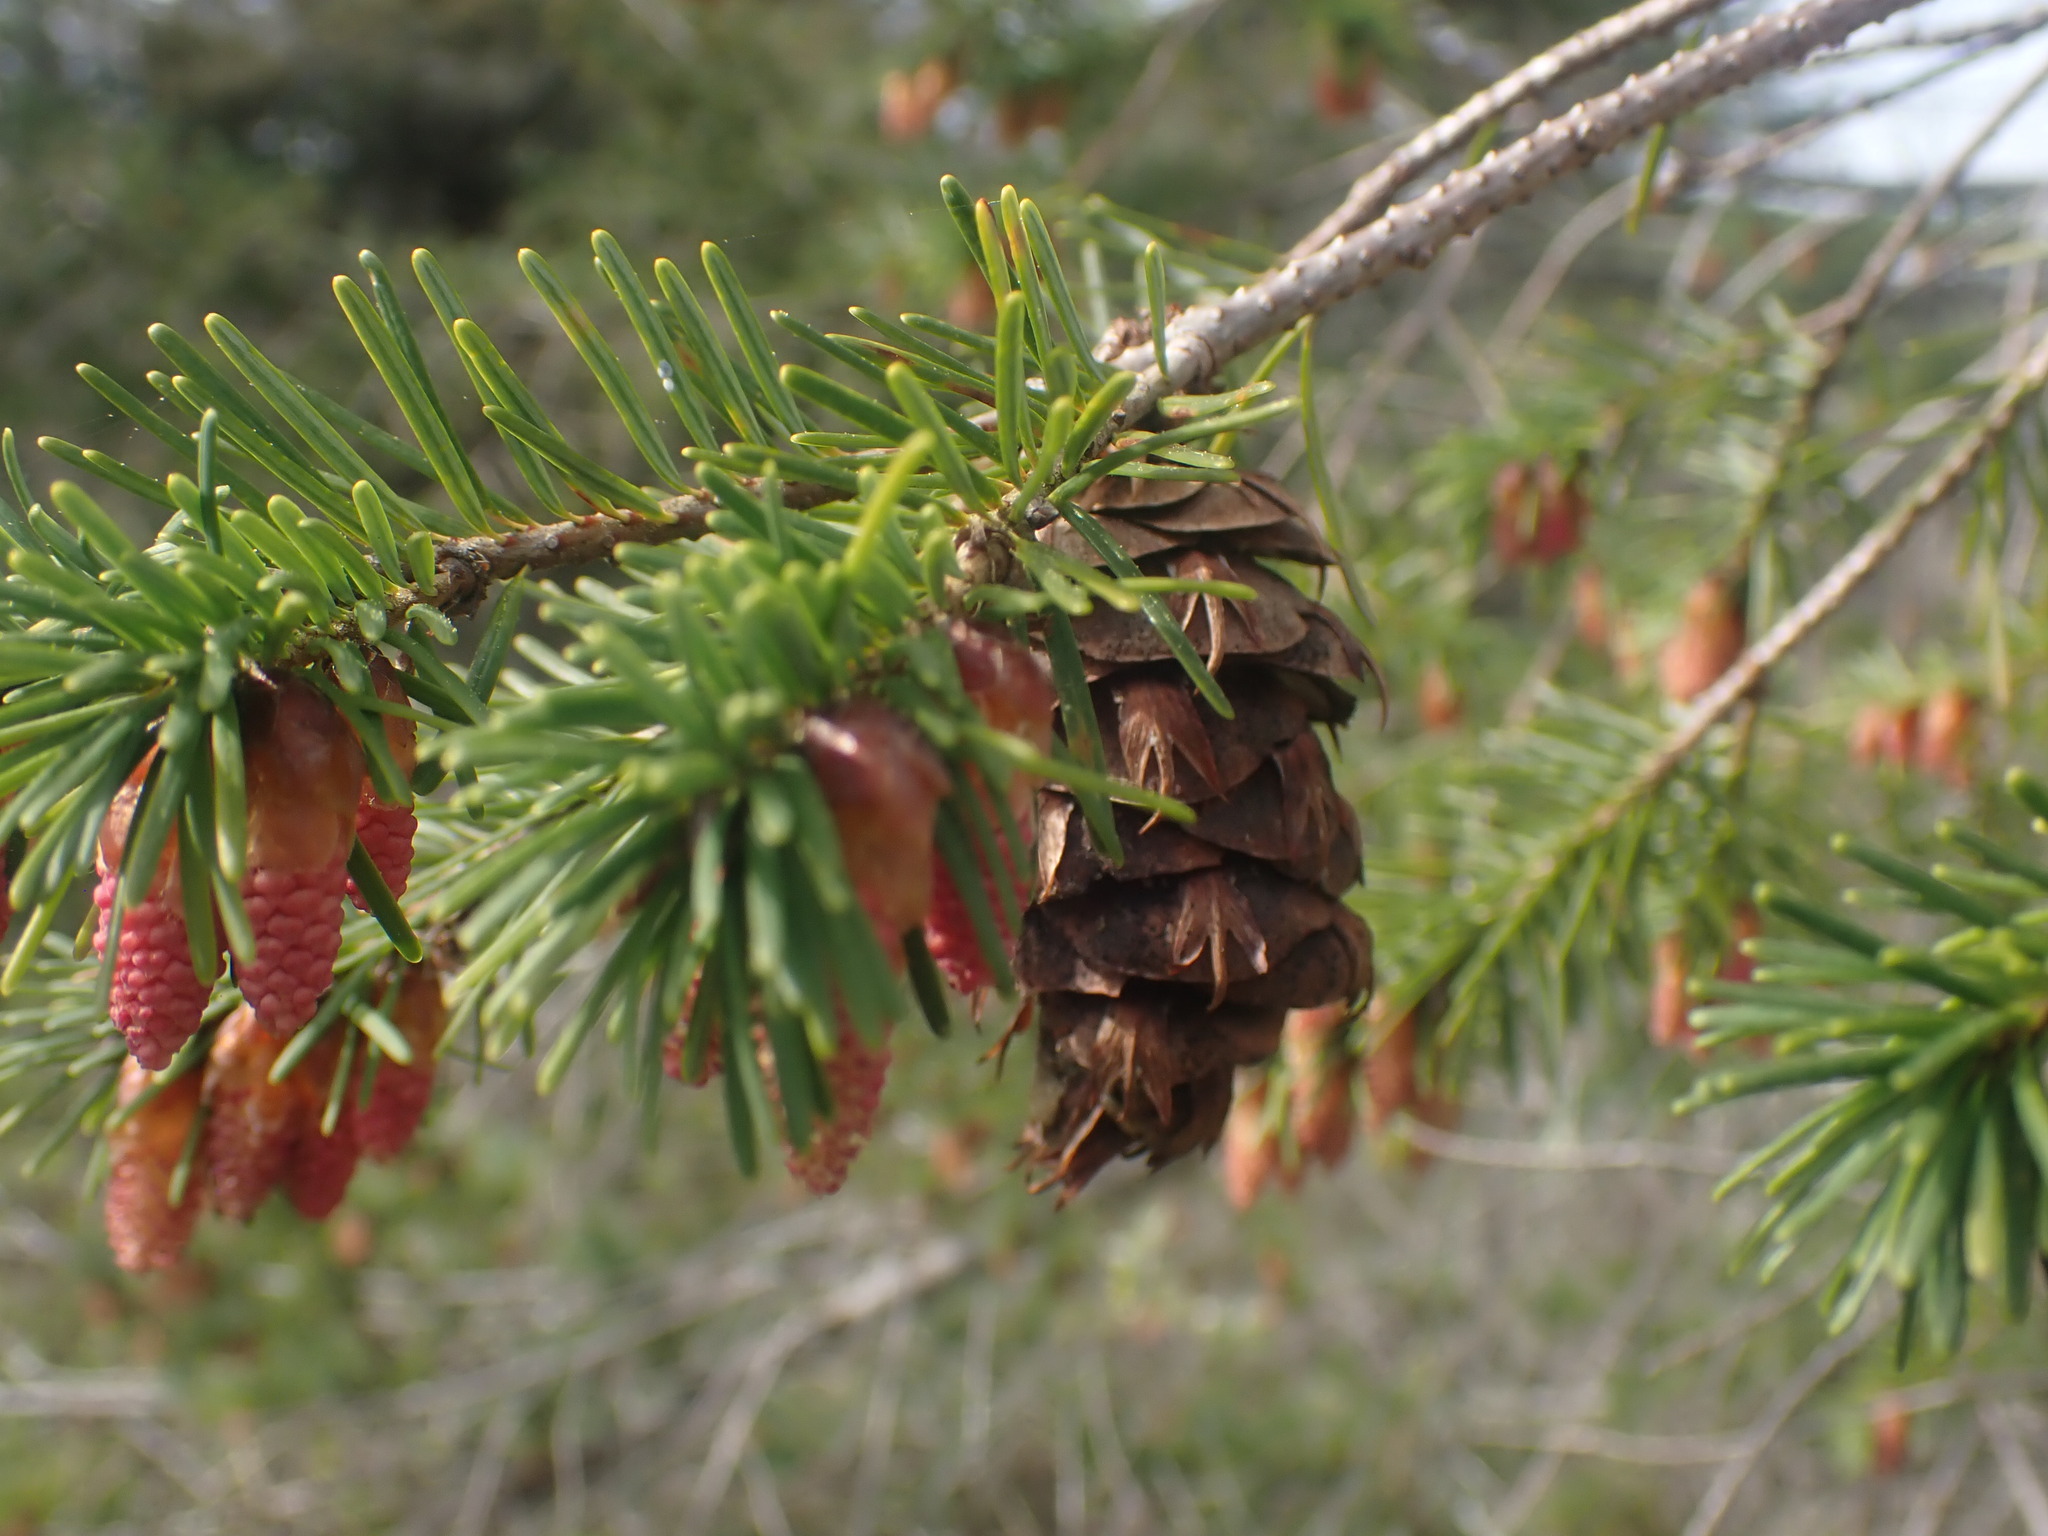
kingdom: Plantae
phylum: Tracheophyta
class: Pinopsida
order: Pinales
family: Pinaceae
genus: Pseudotsuga
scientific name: Pseudotsuga menziesii
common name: Douglas fir
